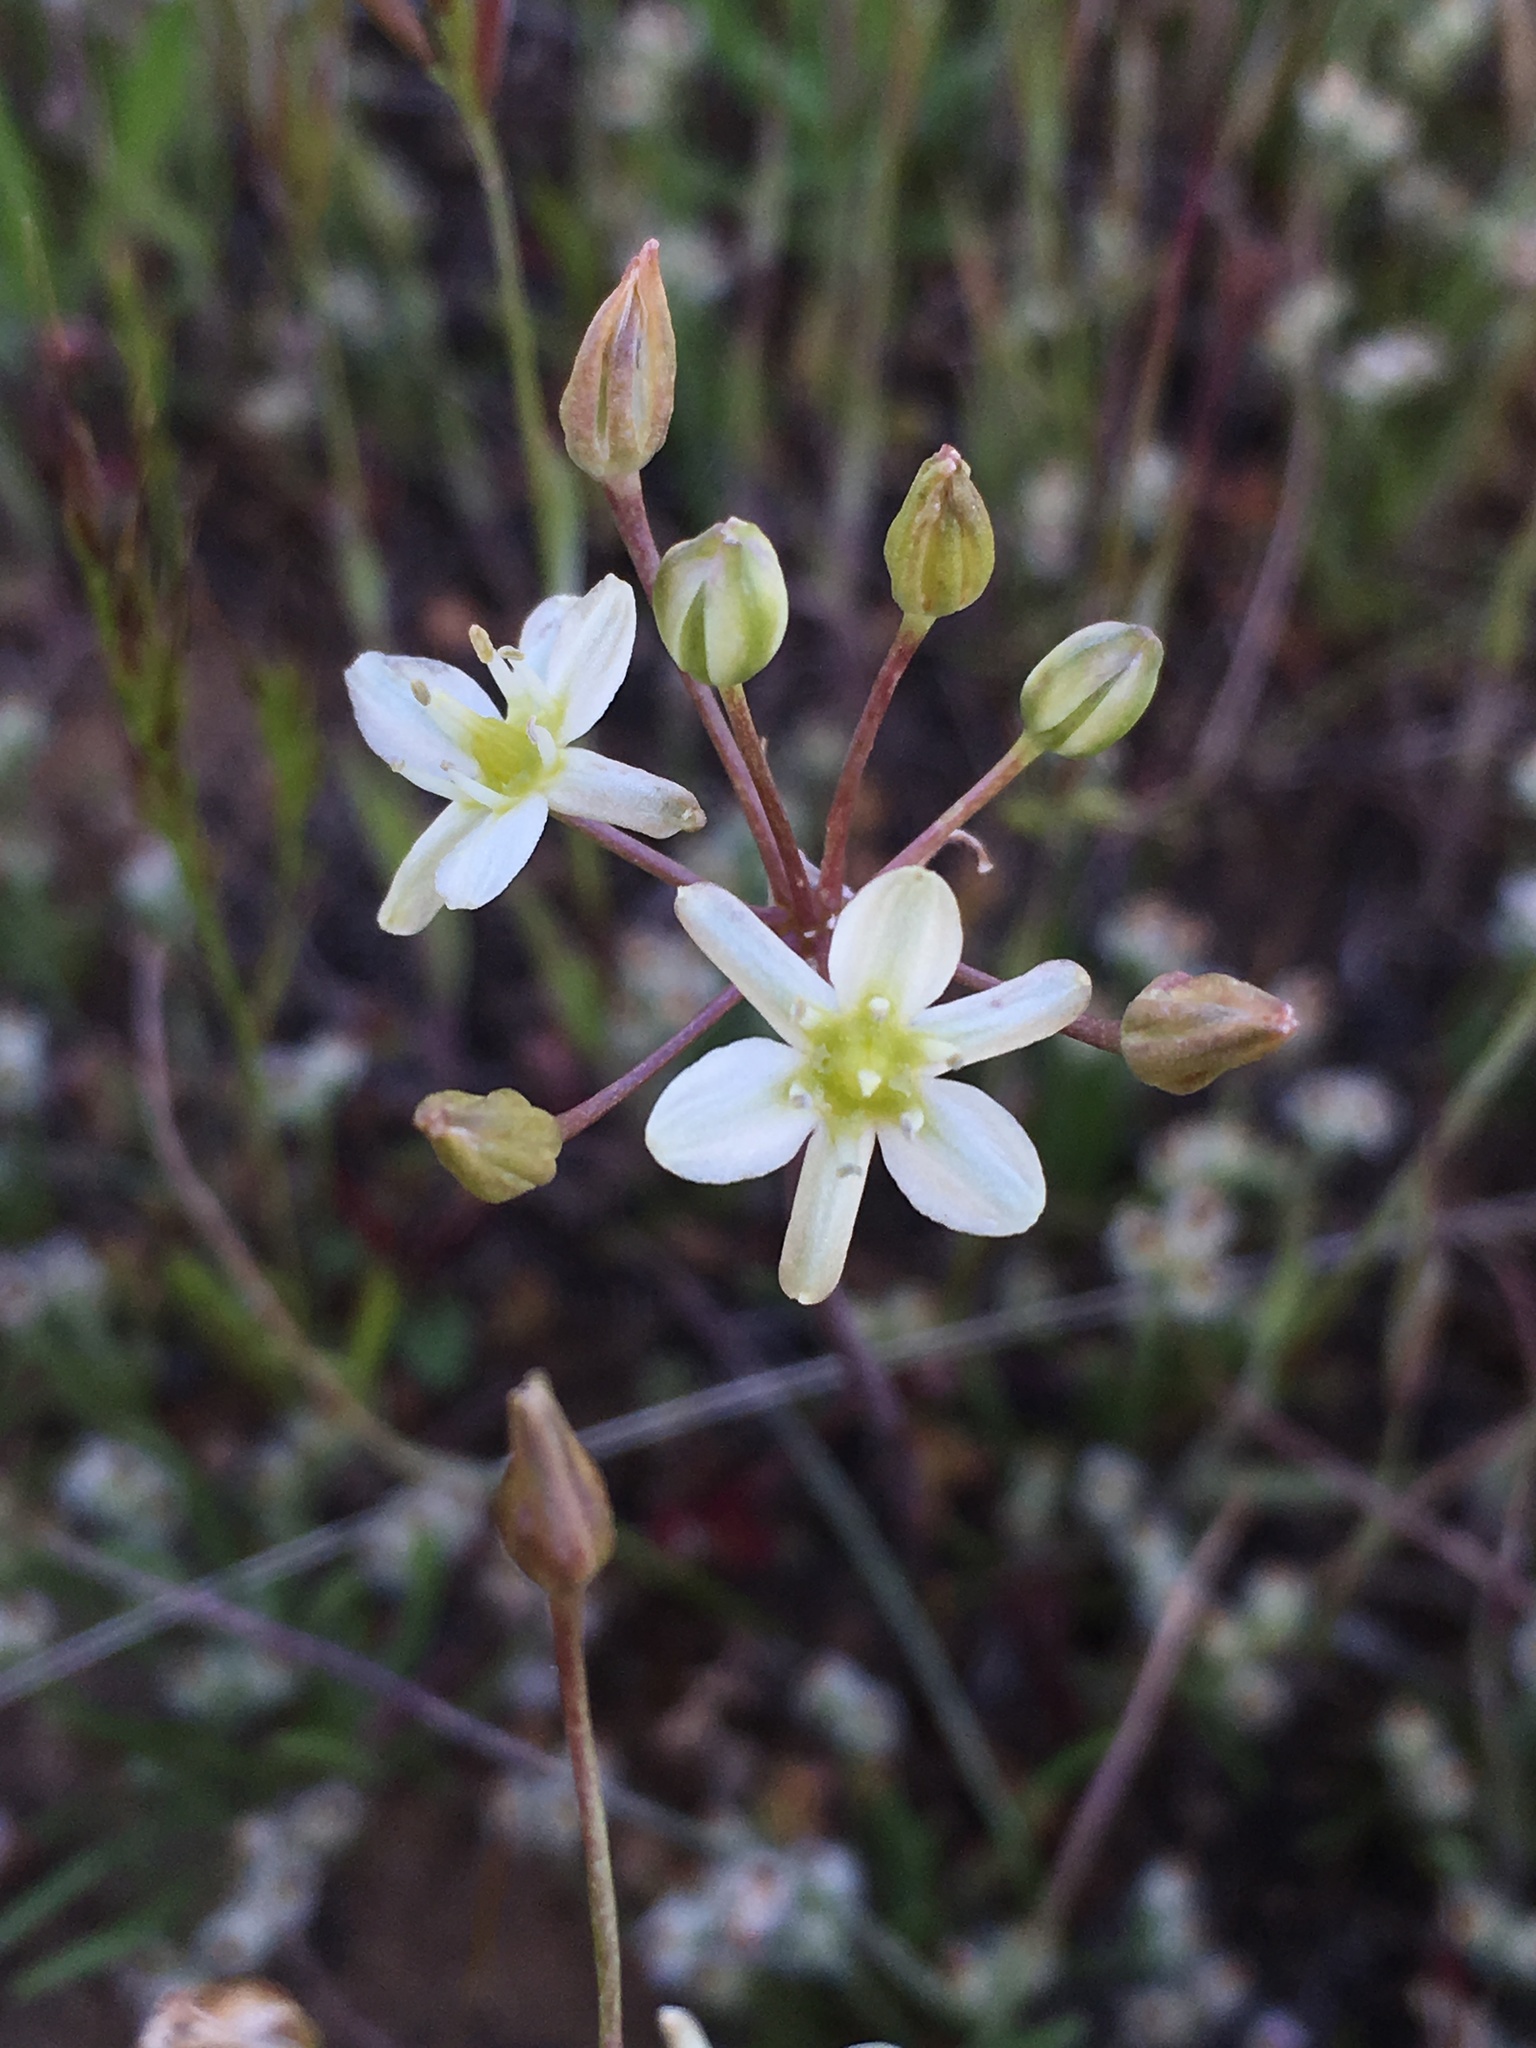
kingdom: Plantae
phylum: Tracheophyta
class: Liliopsida
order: Asparagales
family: Asparagaceae
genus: Muilla
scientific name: Muilla maritima
